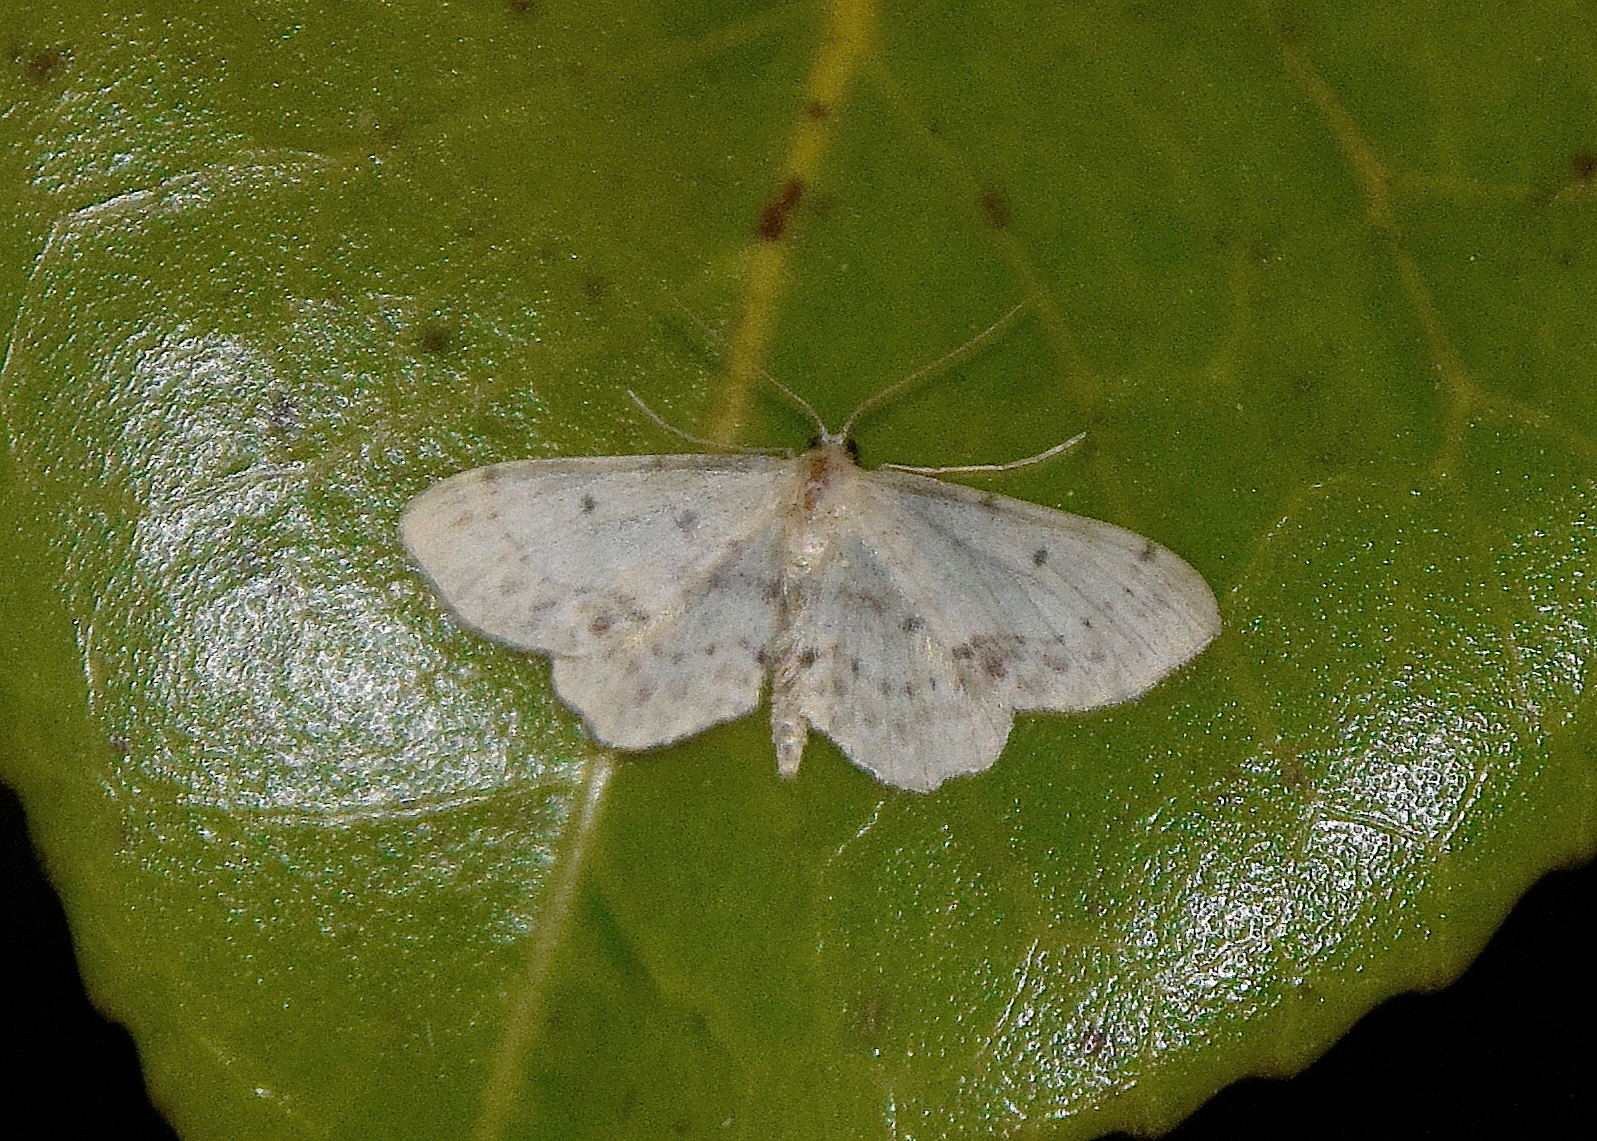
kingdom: Animalia
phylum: Arthropoda
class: Insecta
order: Lepidoptera
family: Geometridae
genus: Idaea
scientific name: Idaea dimidiata
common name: Single-dotted wave
